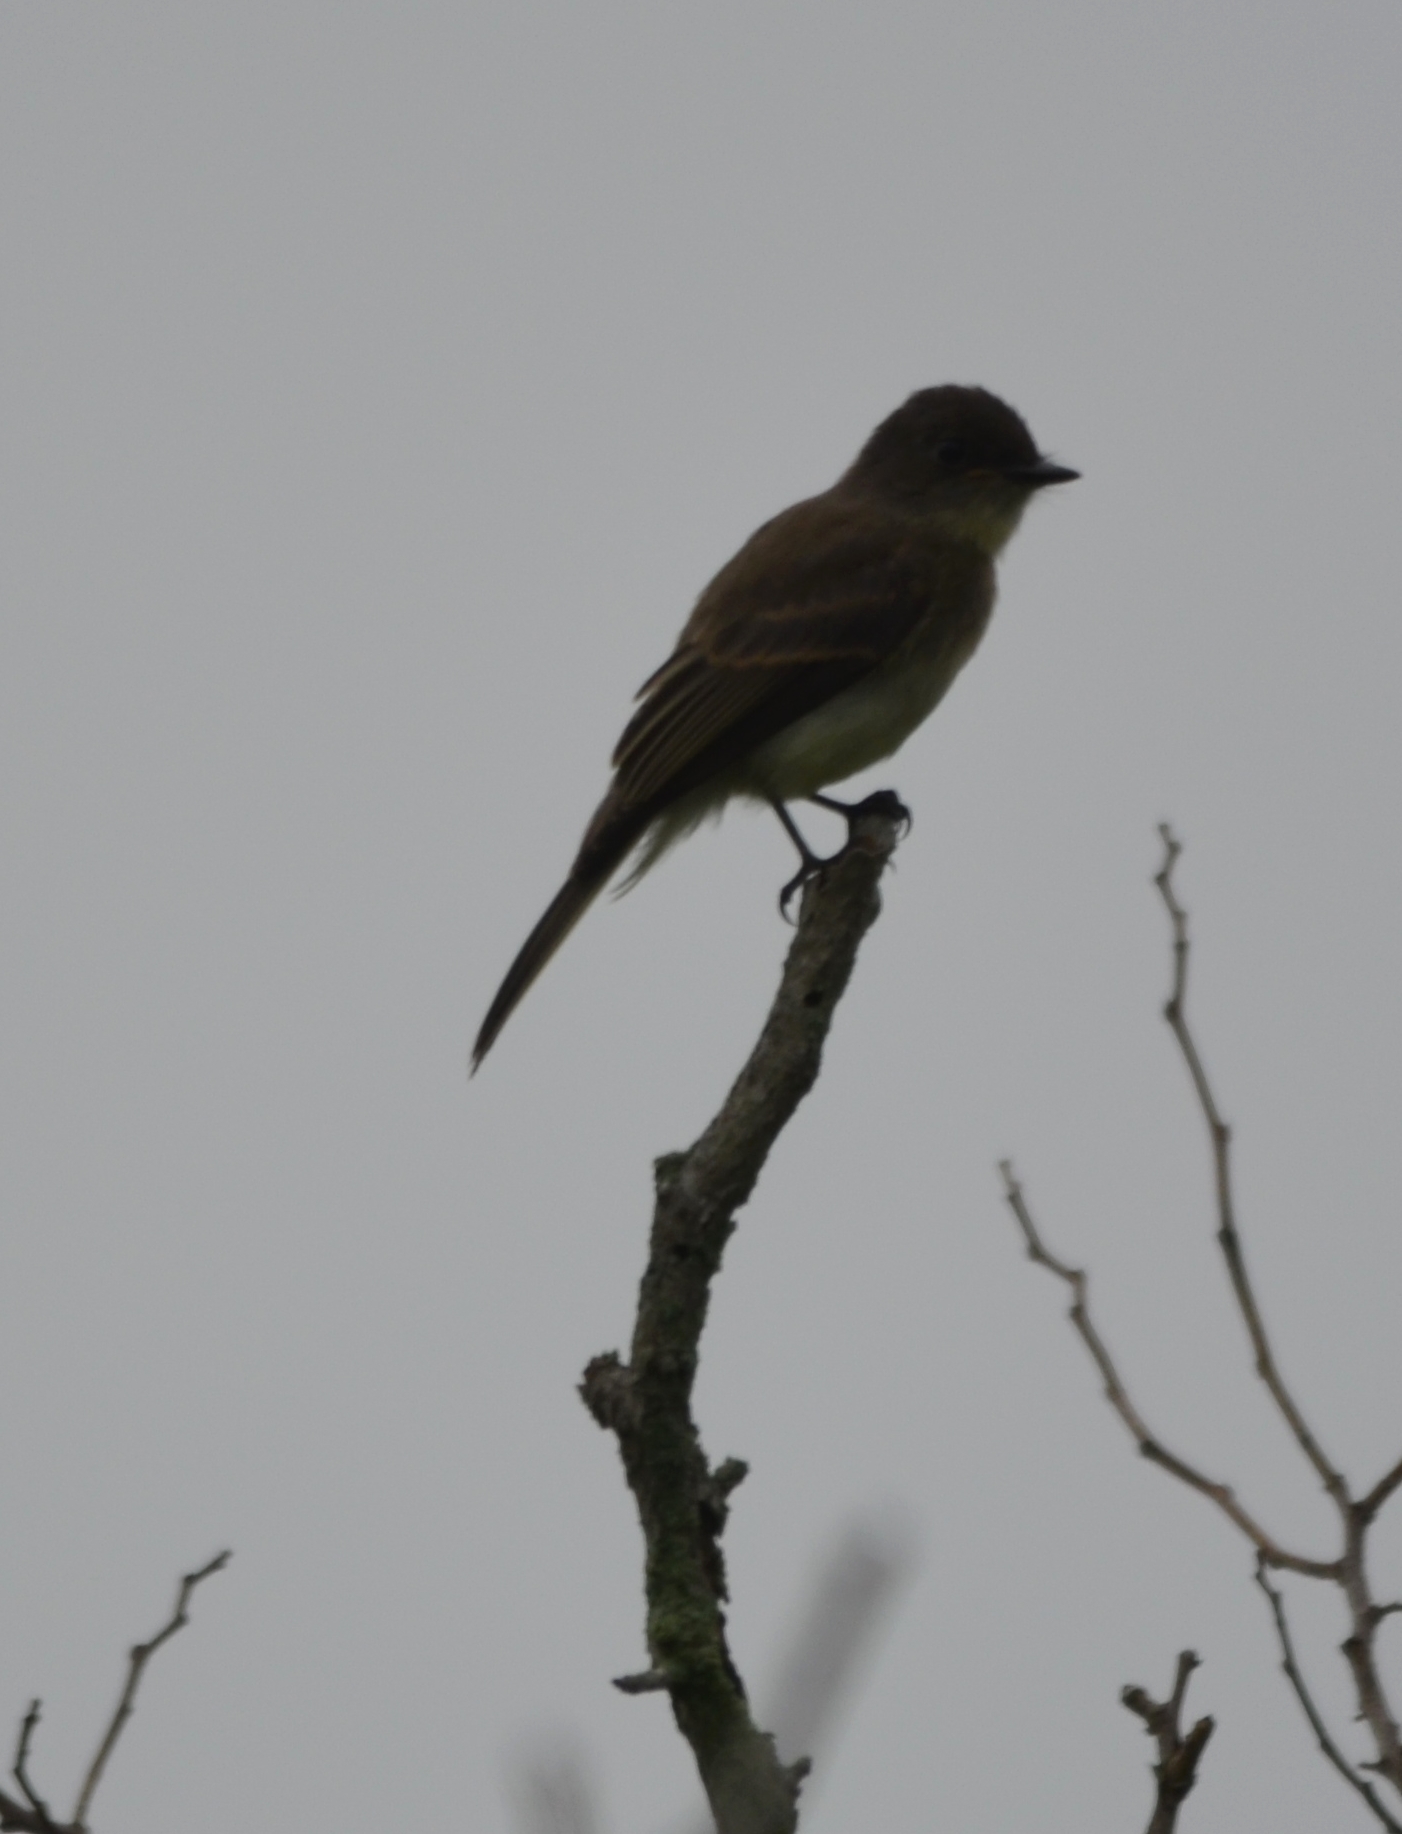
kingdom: Animalia
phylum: Chordata
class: Aves
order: Passeriformes
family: Tyrannidae
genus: Sayornis
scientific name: Sayornis phoebe
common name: Eastern phoebe
